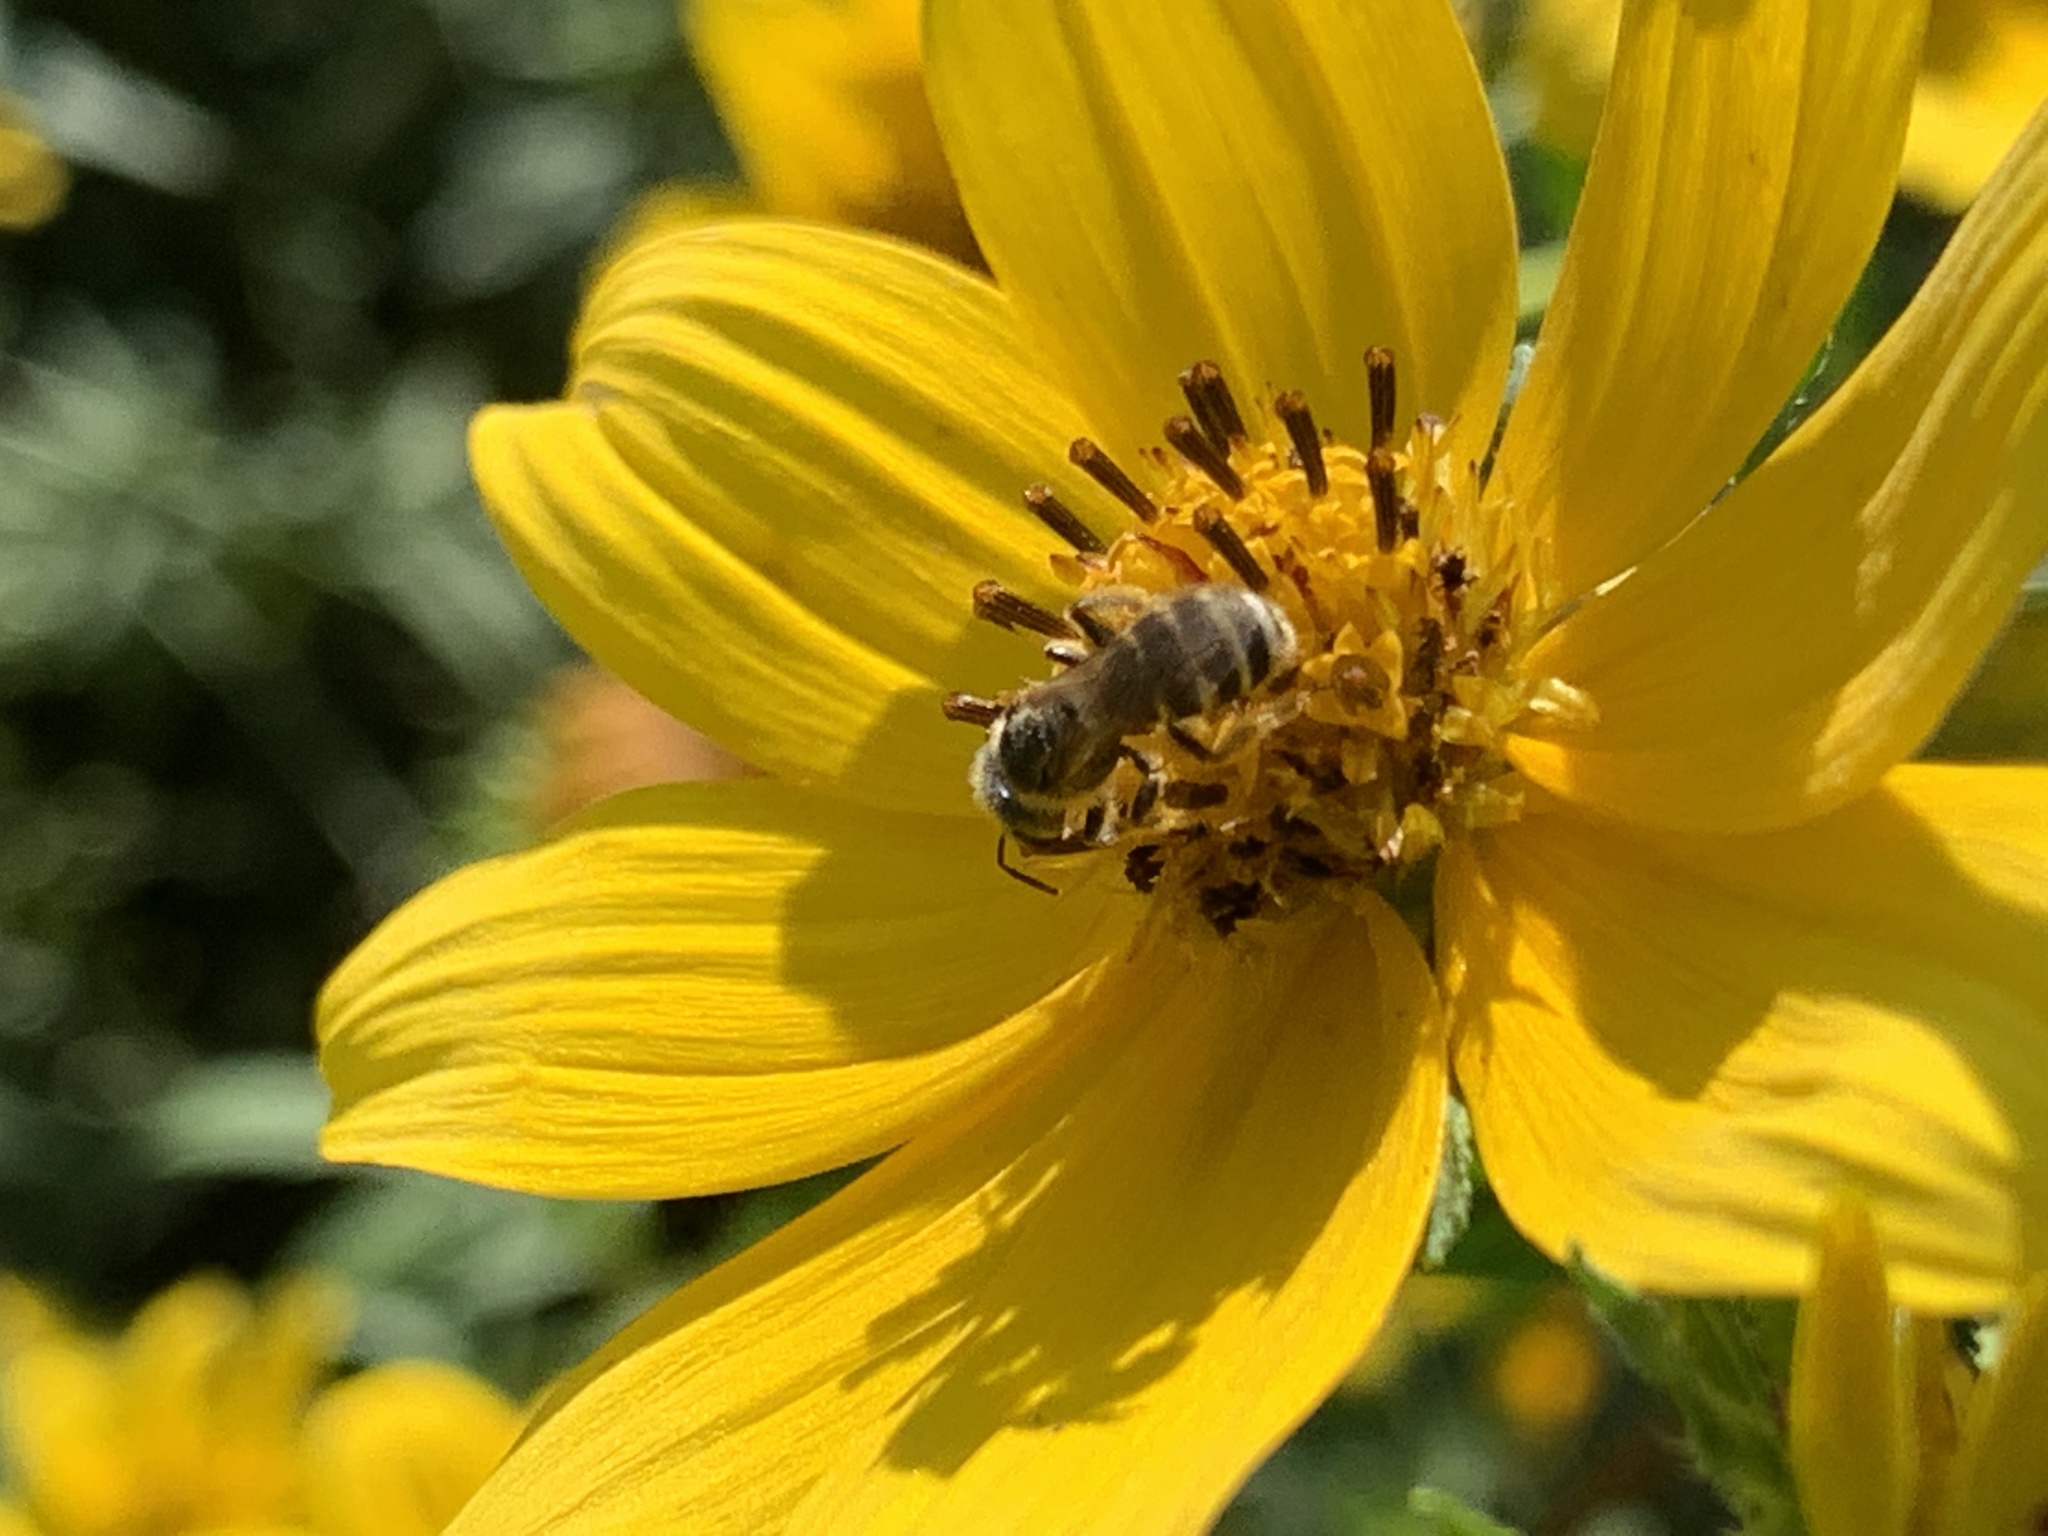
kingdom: Animalia
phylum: Arthropoda
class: Insecta
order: Hymenoptera
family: Halictidae
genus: Halictus
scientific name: Halictus ligatus
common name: Ligated furrow bee
